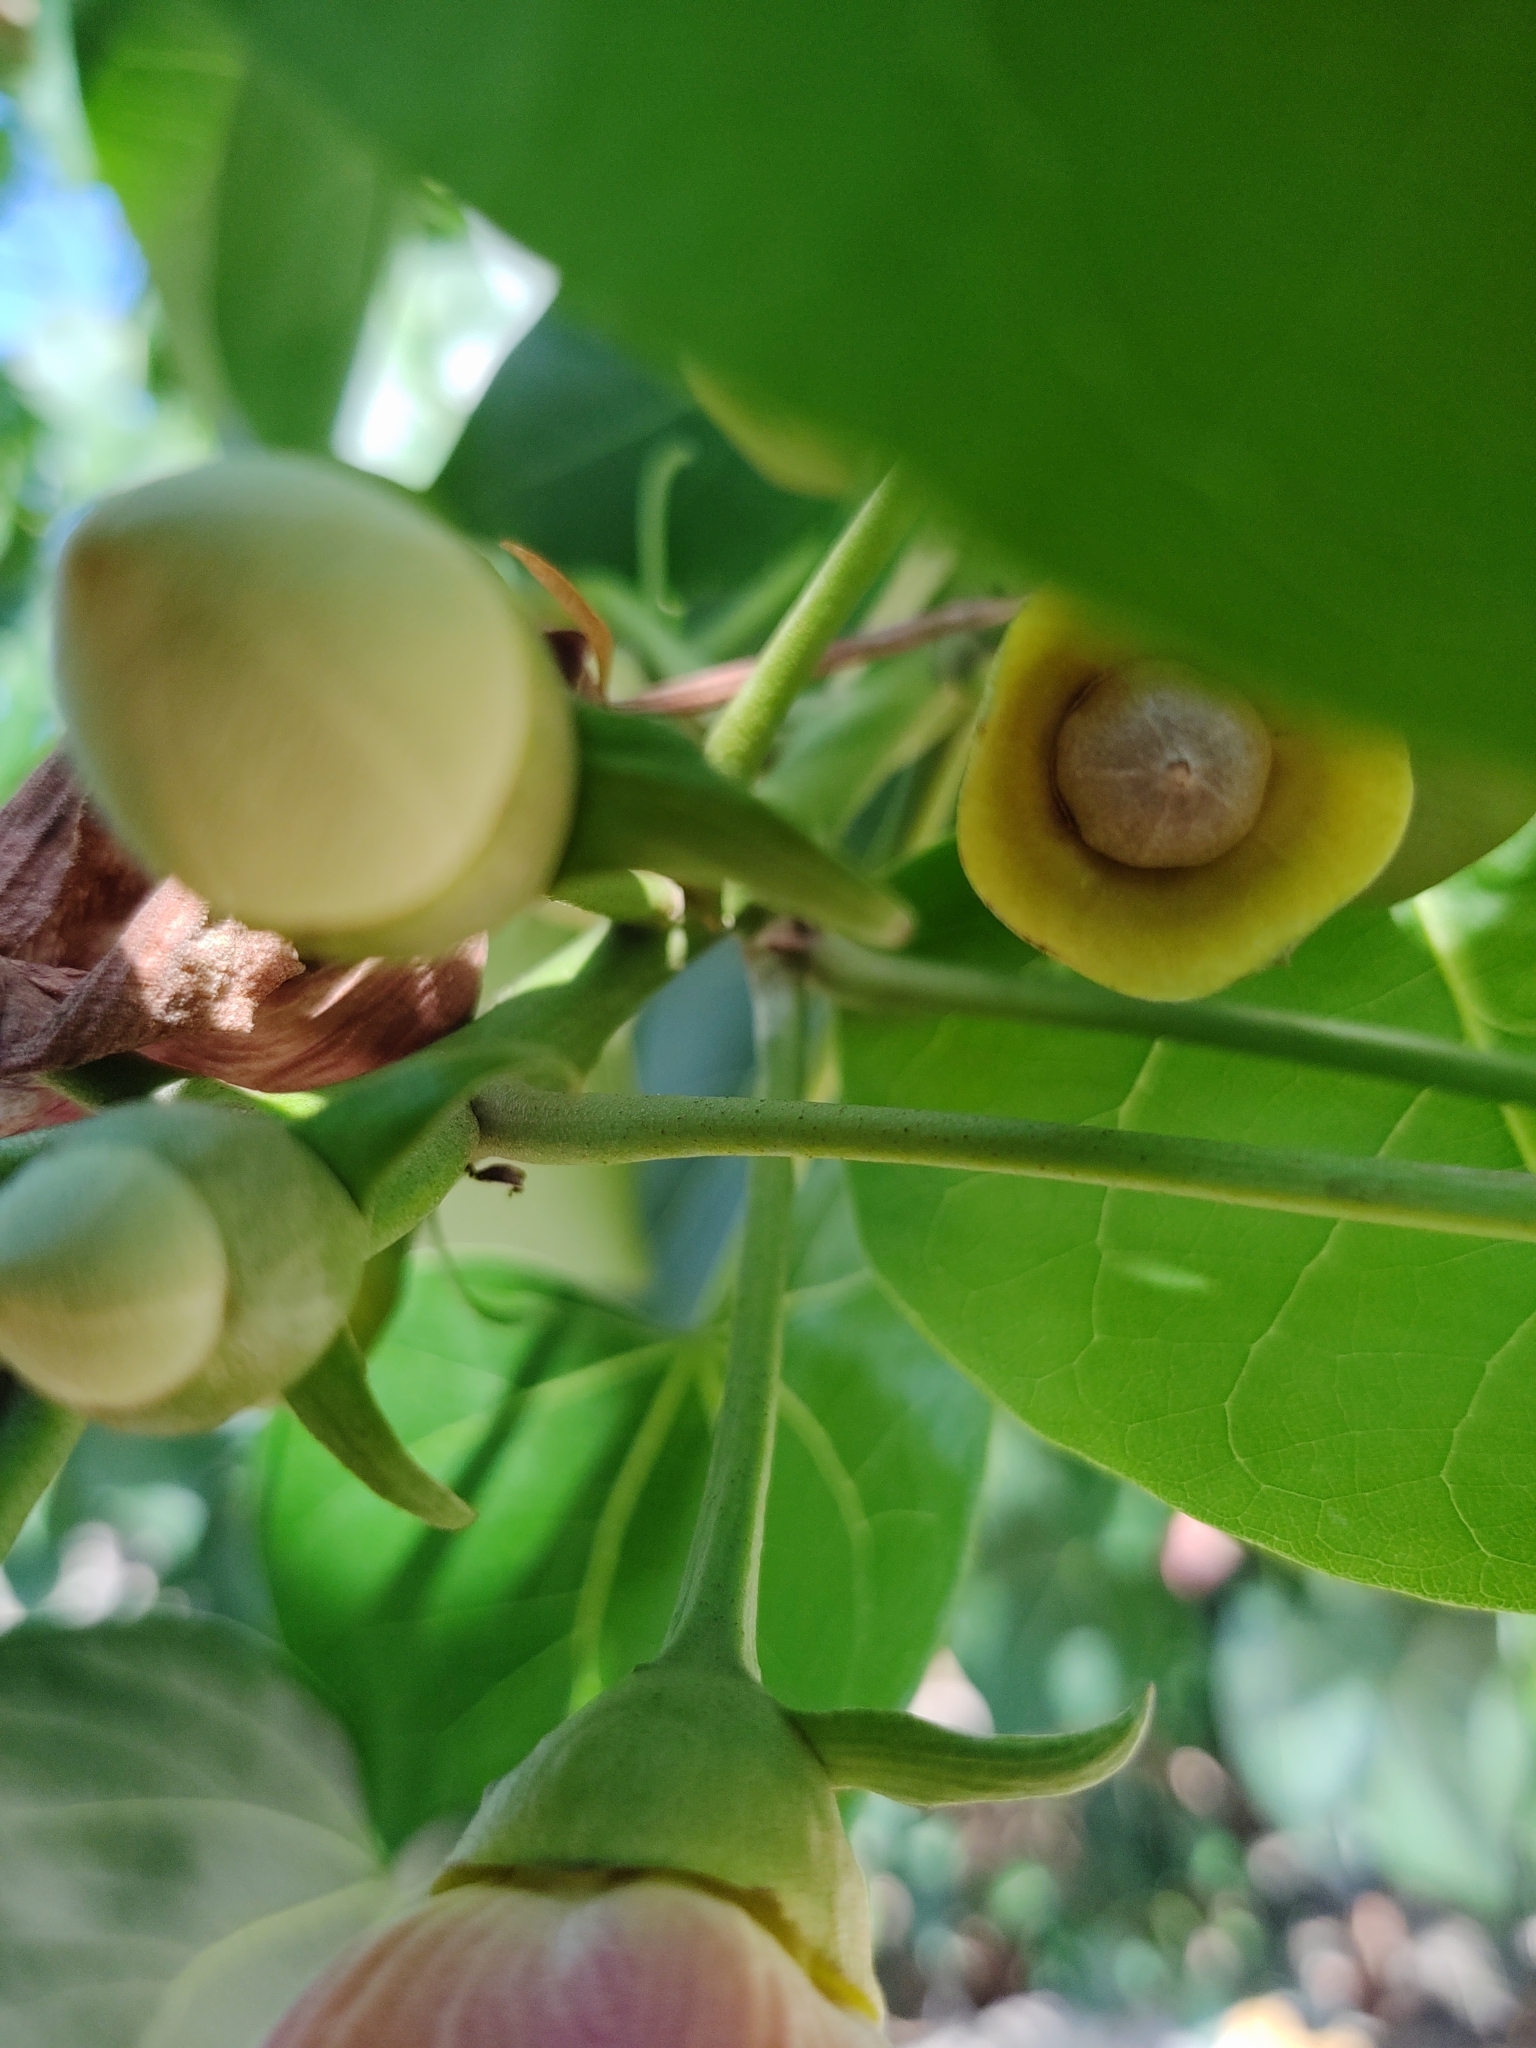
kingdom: Plantae
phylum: Tracheophyta
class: Magnoliopsida
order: Malvales
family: Malvaceae
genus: Thespesia
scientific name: Thespesia populnea
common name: Seaside mahoe
